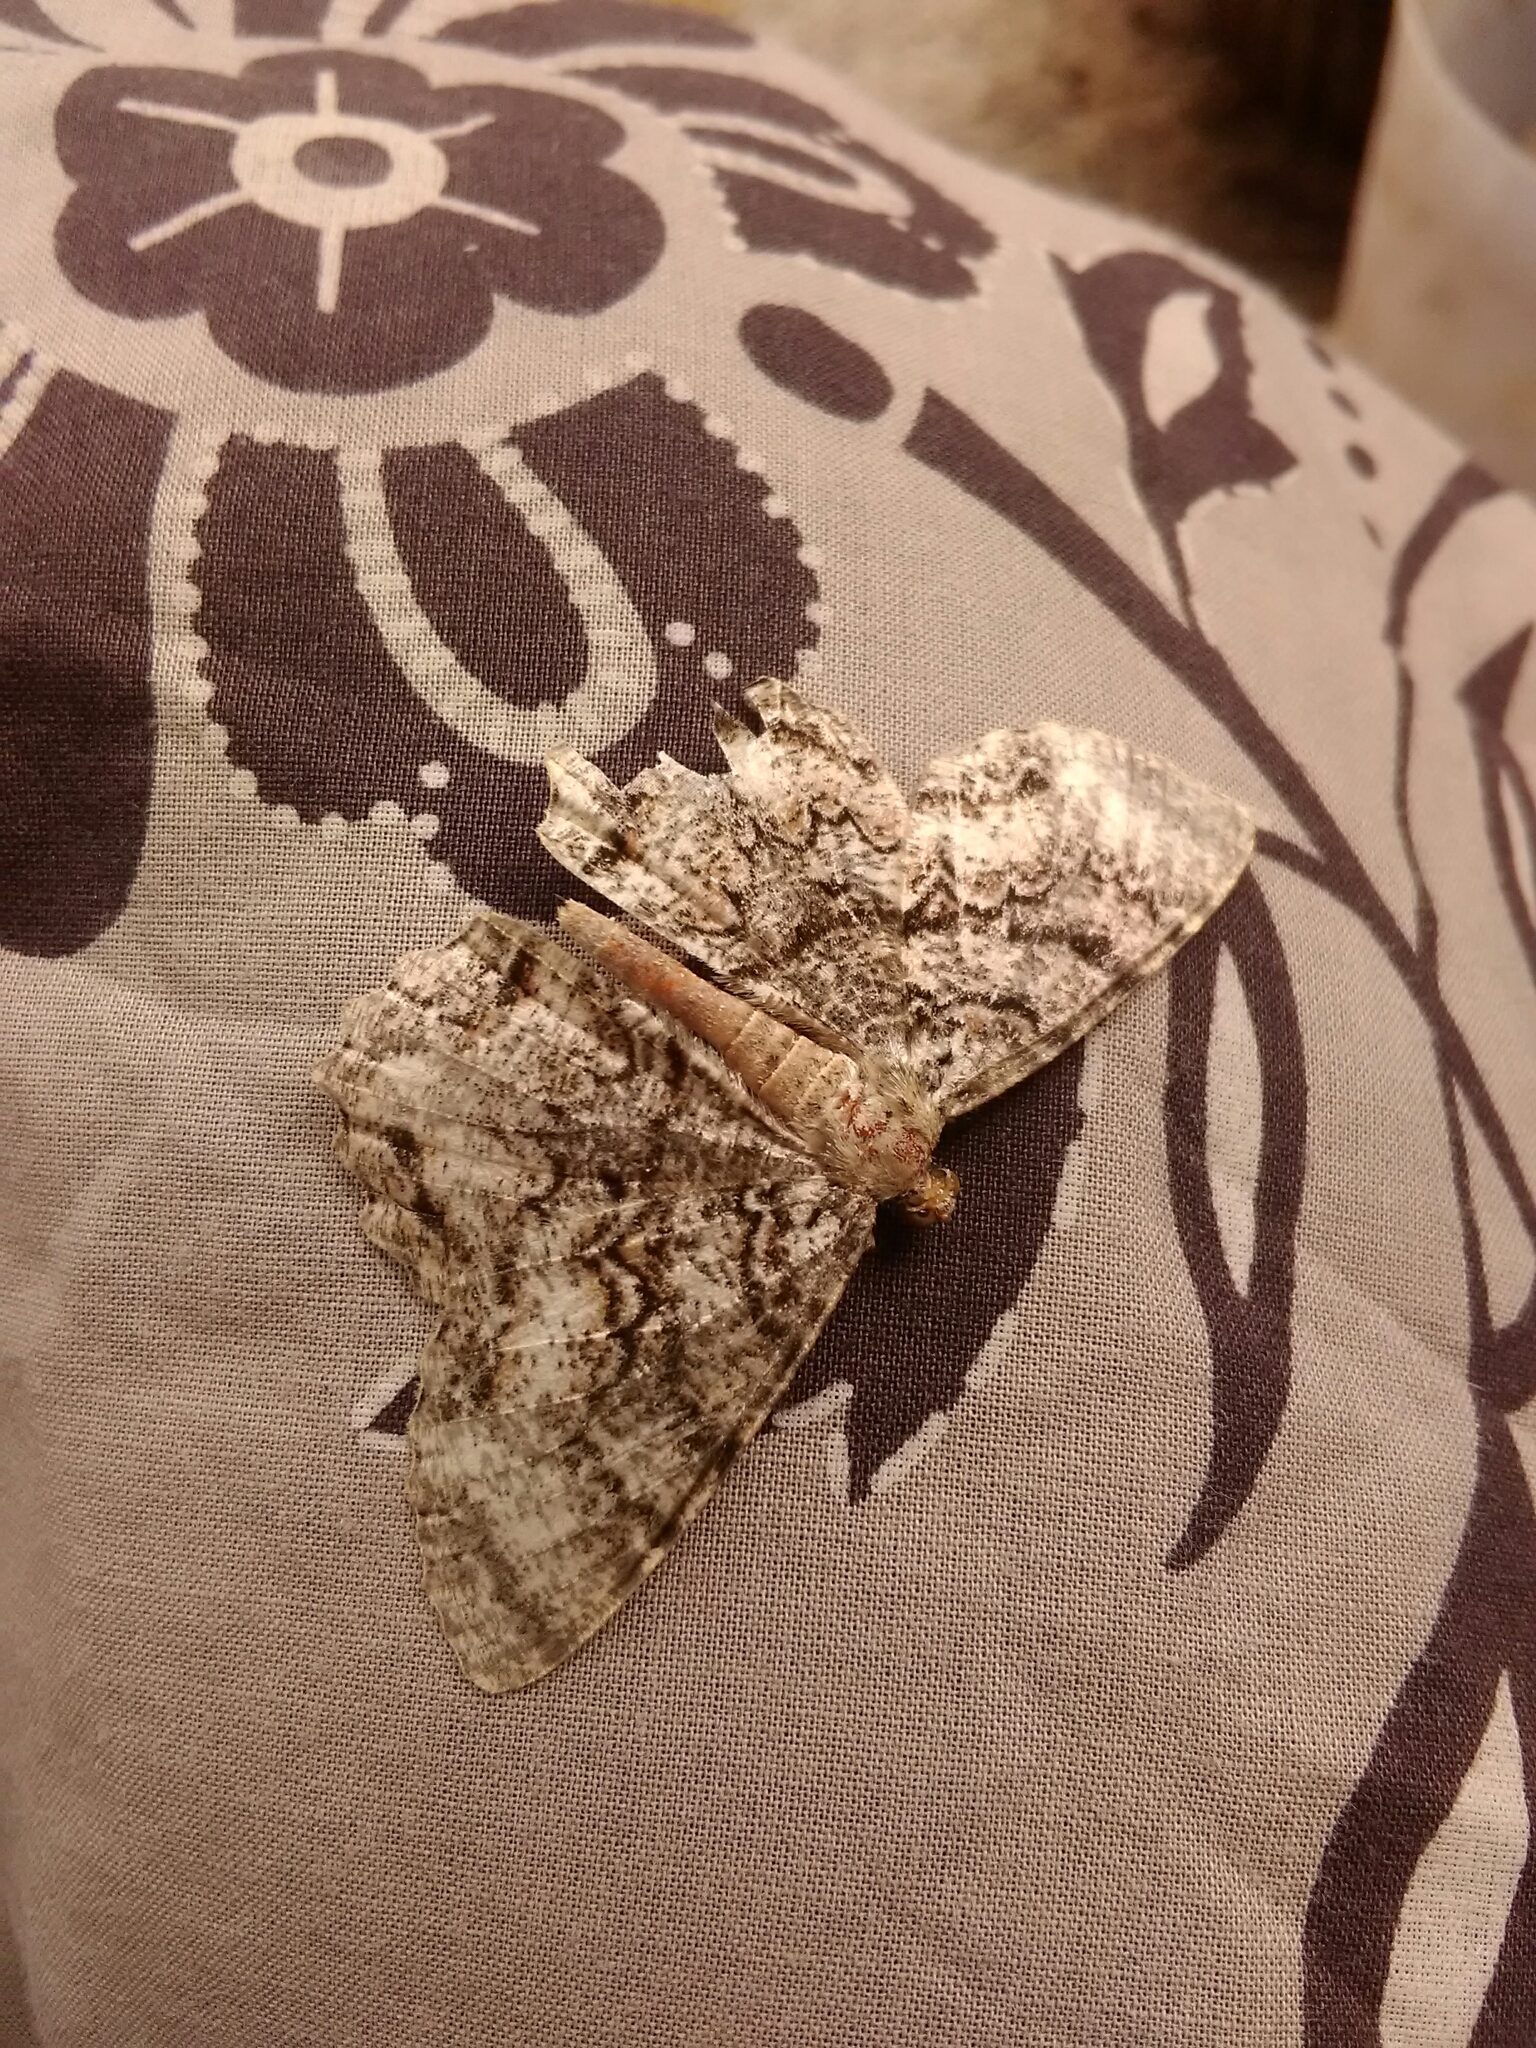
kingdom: Animalia
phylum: Arthropoda
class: Insecta
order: Lepidoptera
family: Geometridae
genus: Epimecis
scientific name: Epimecis hortaria
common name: Tulip-tree beauty
